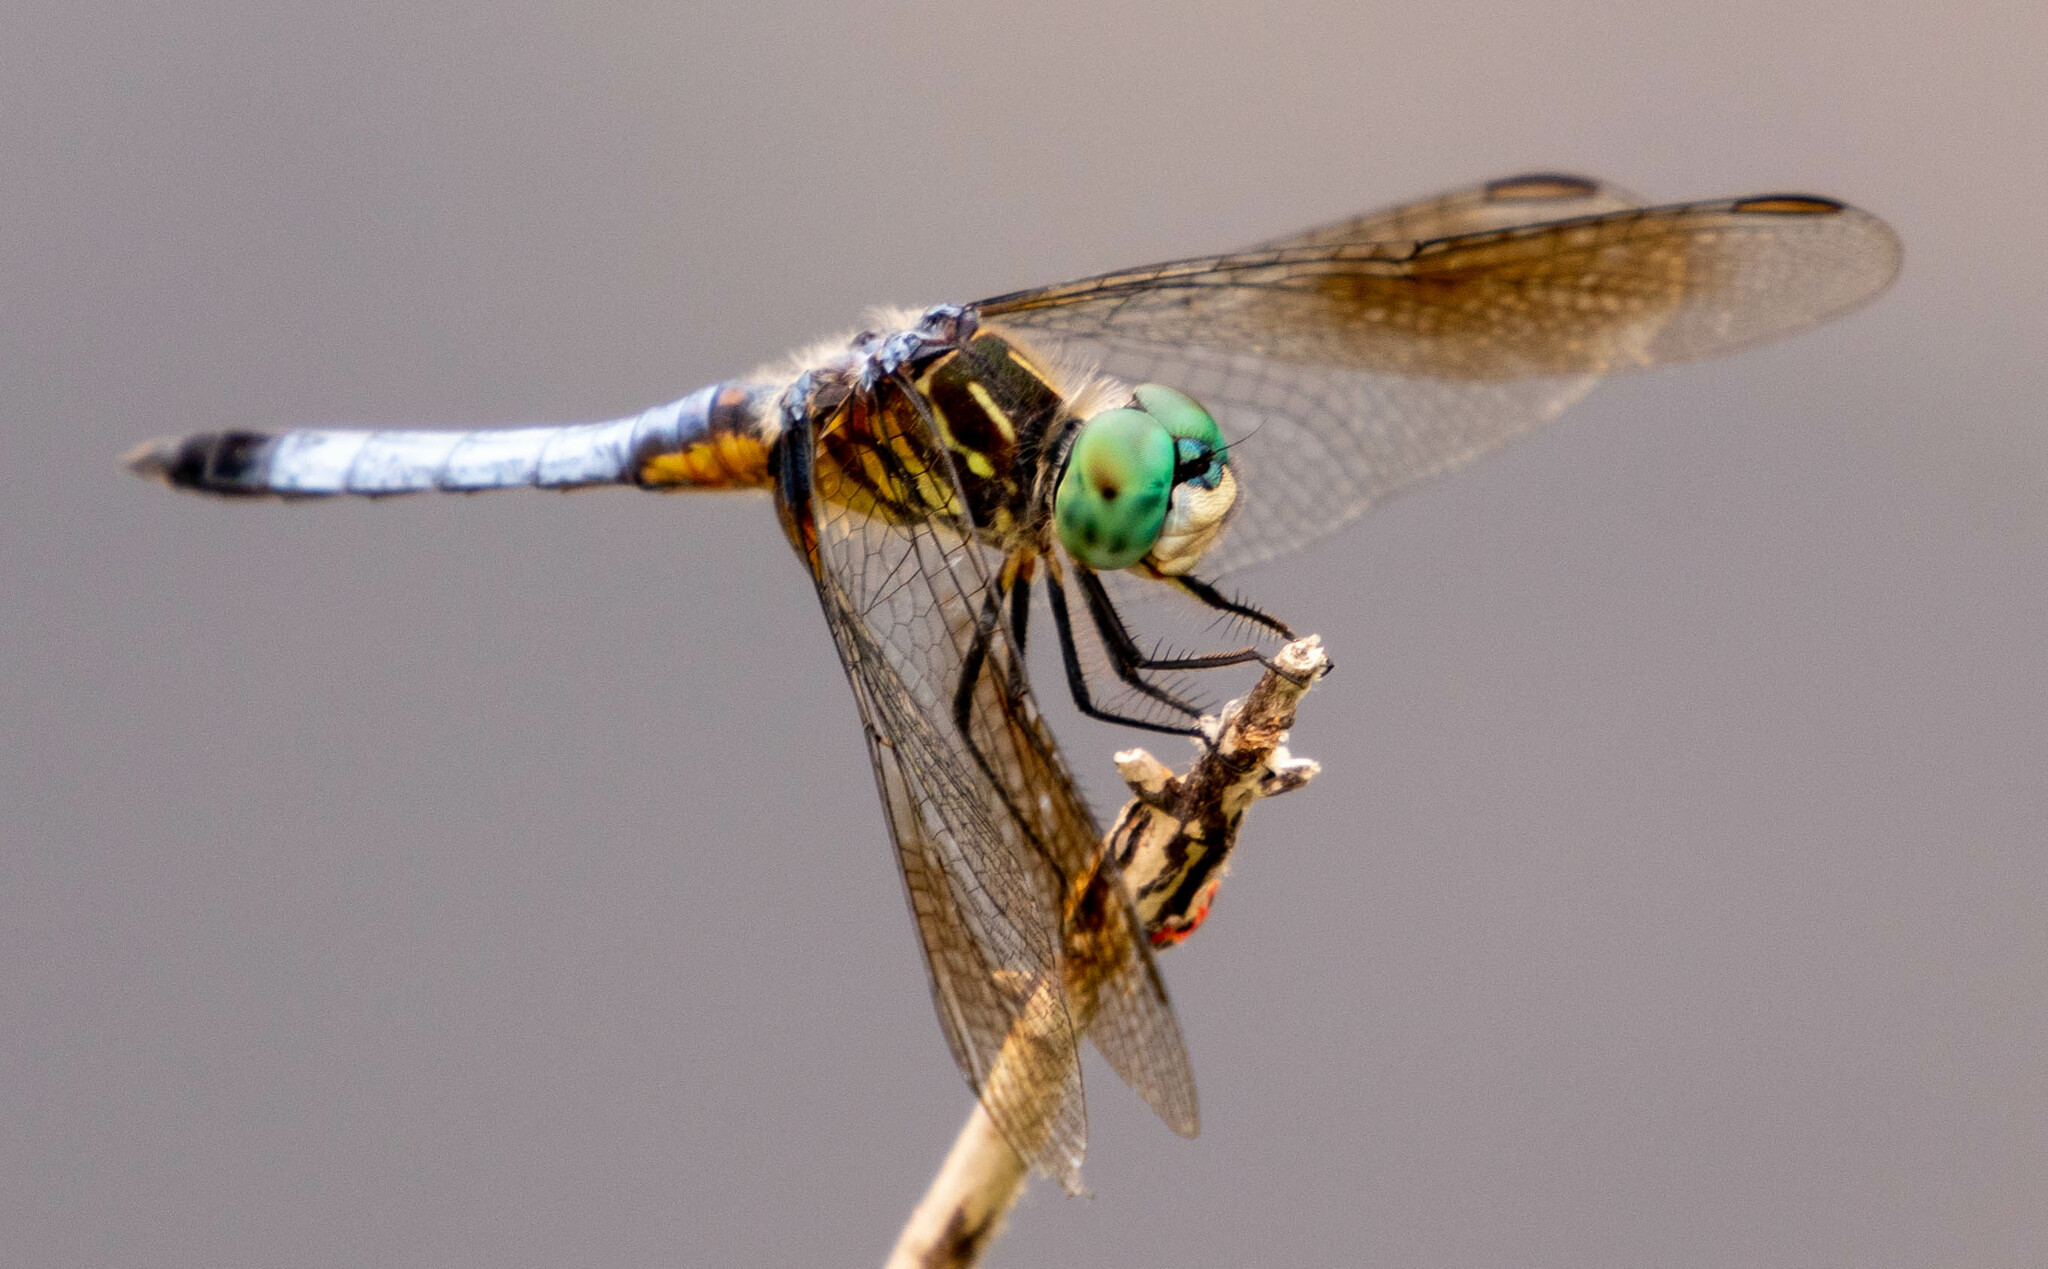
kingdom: Animalia
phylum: Arthropoda
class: Insecta
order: Odonata
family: Libellulidae
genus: Pachydiplax
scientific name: Pachydiplax longipennis
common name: Blue dasher
